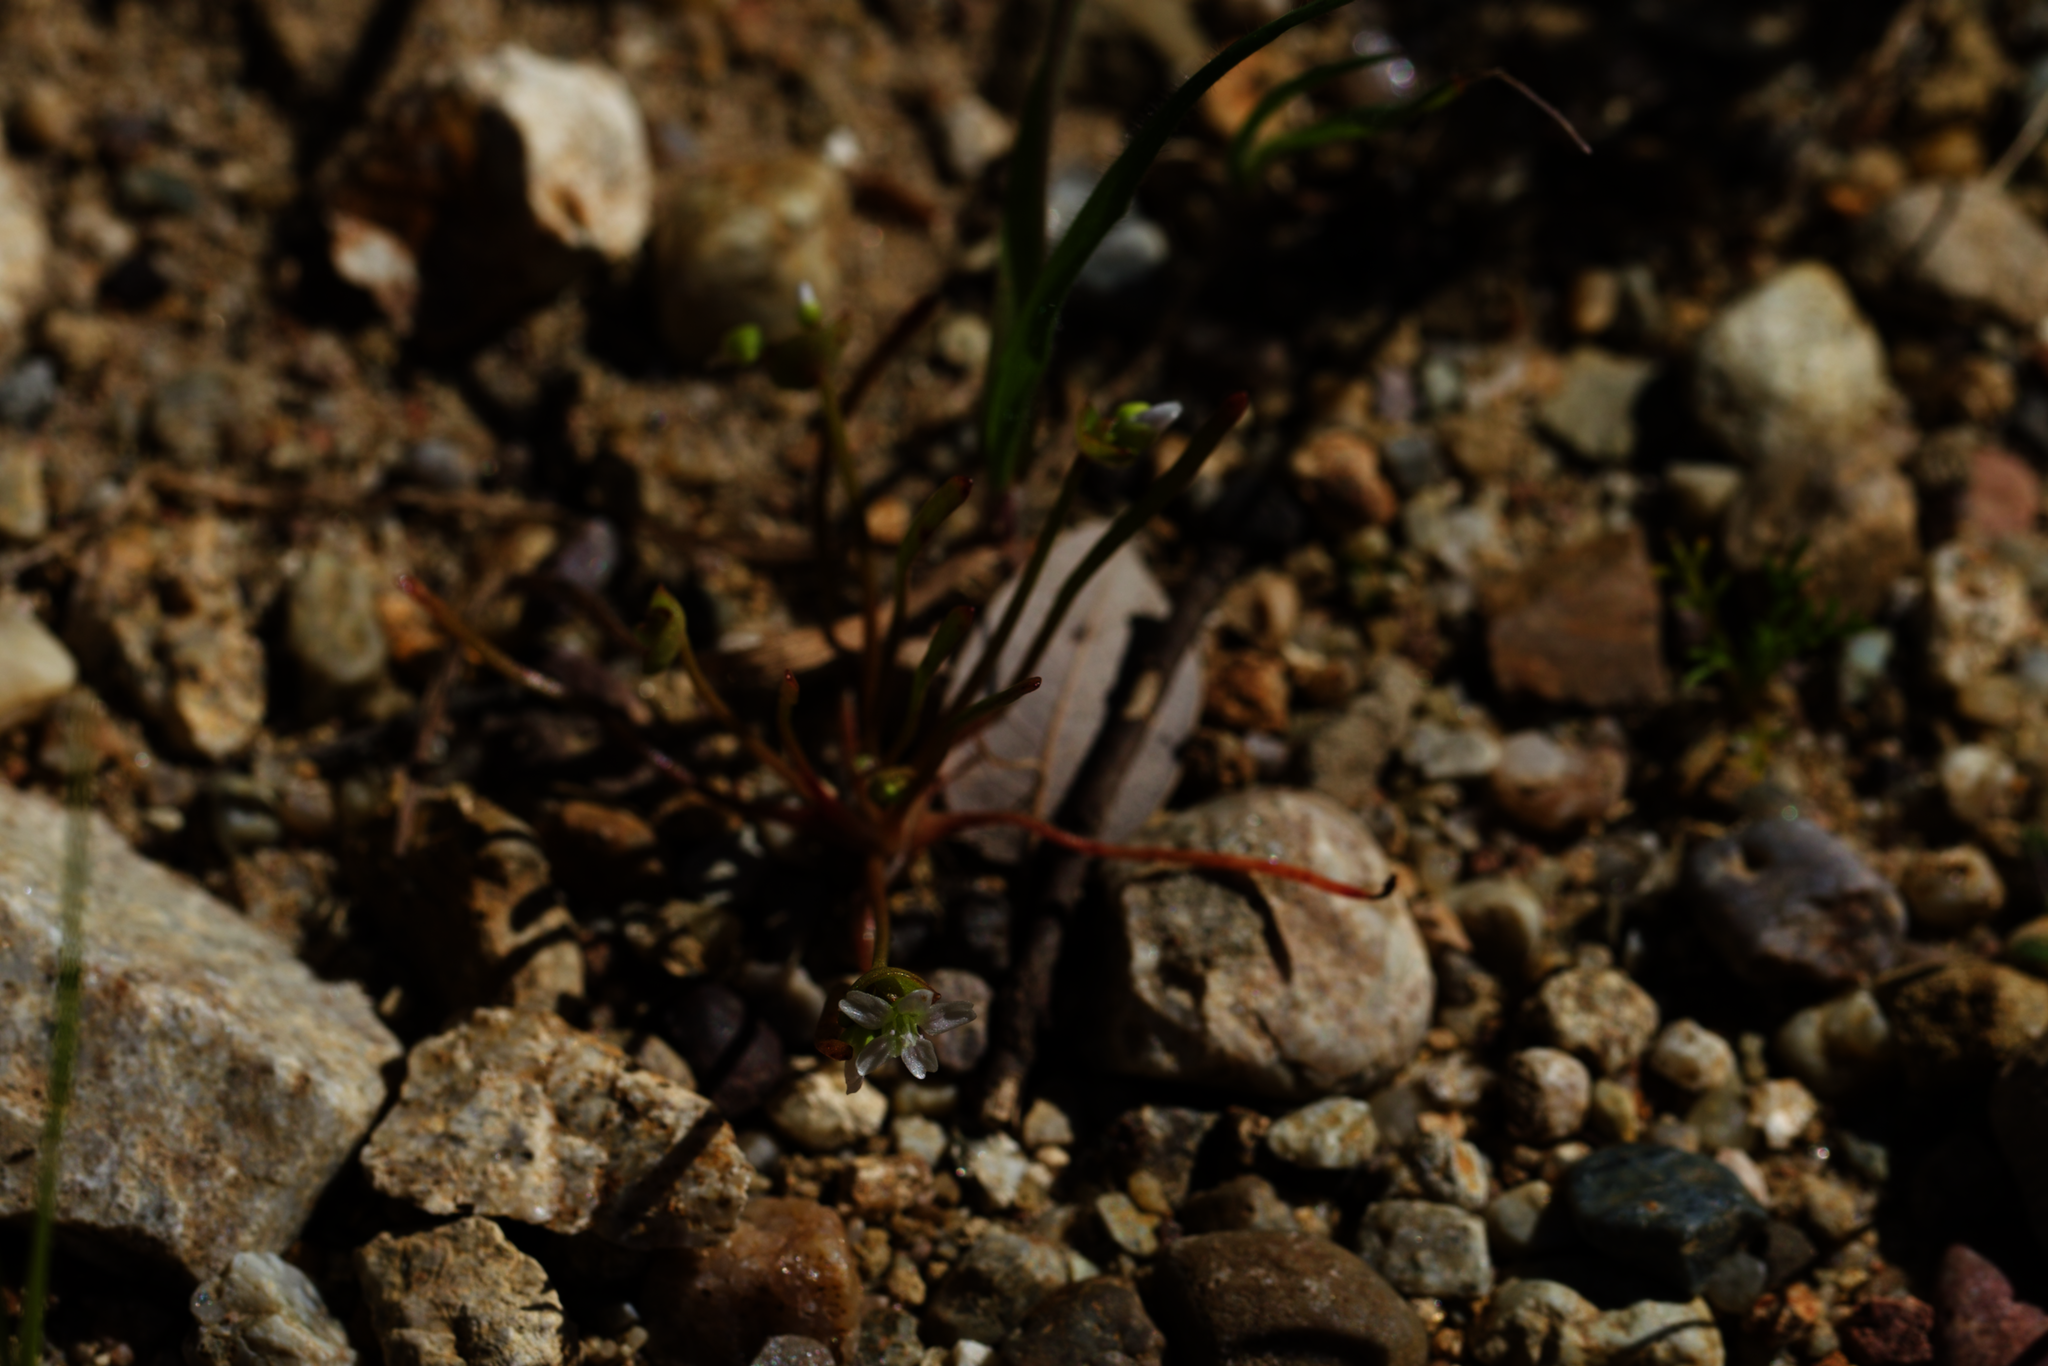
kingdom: Plantae
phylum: Tracheophyta
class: Magnoliopsida
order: Caryophyllales
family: Montiaceae
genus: Claytonia
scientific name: Claytonia parviflora
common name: Indian-lettuce
